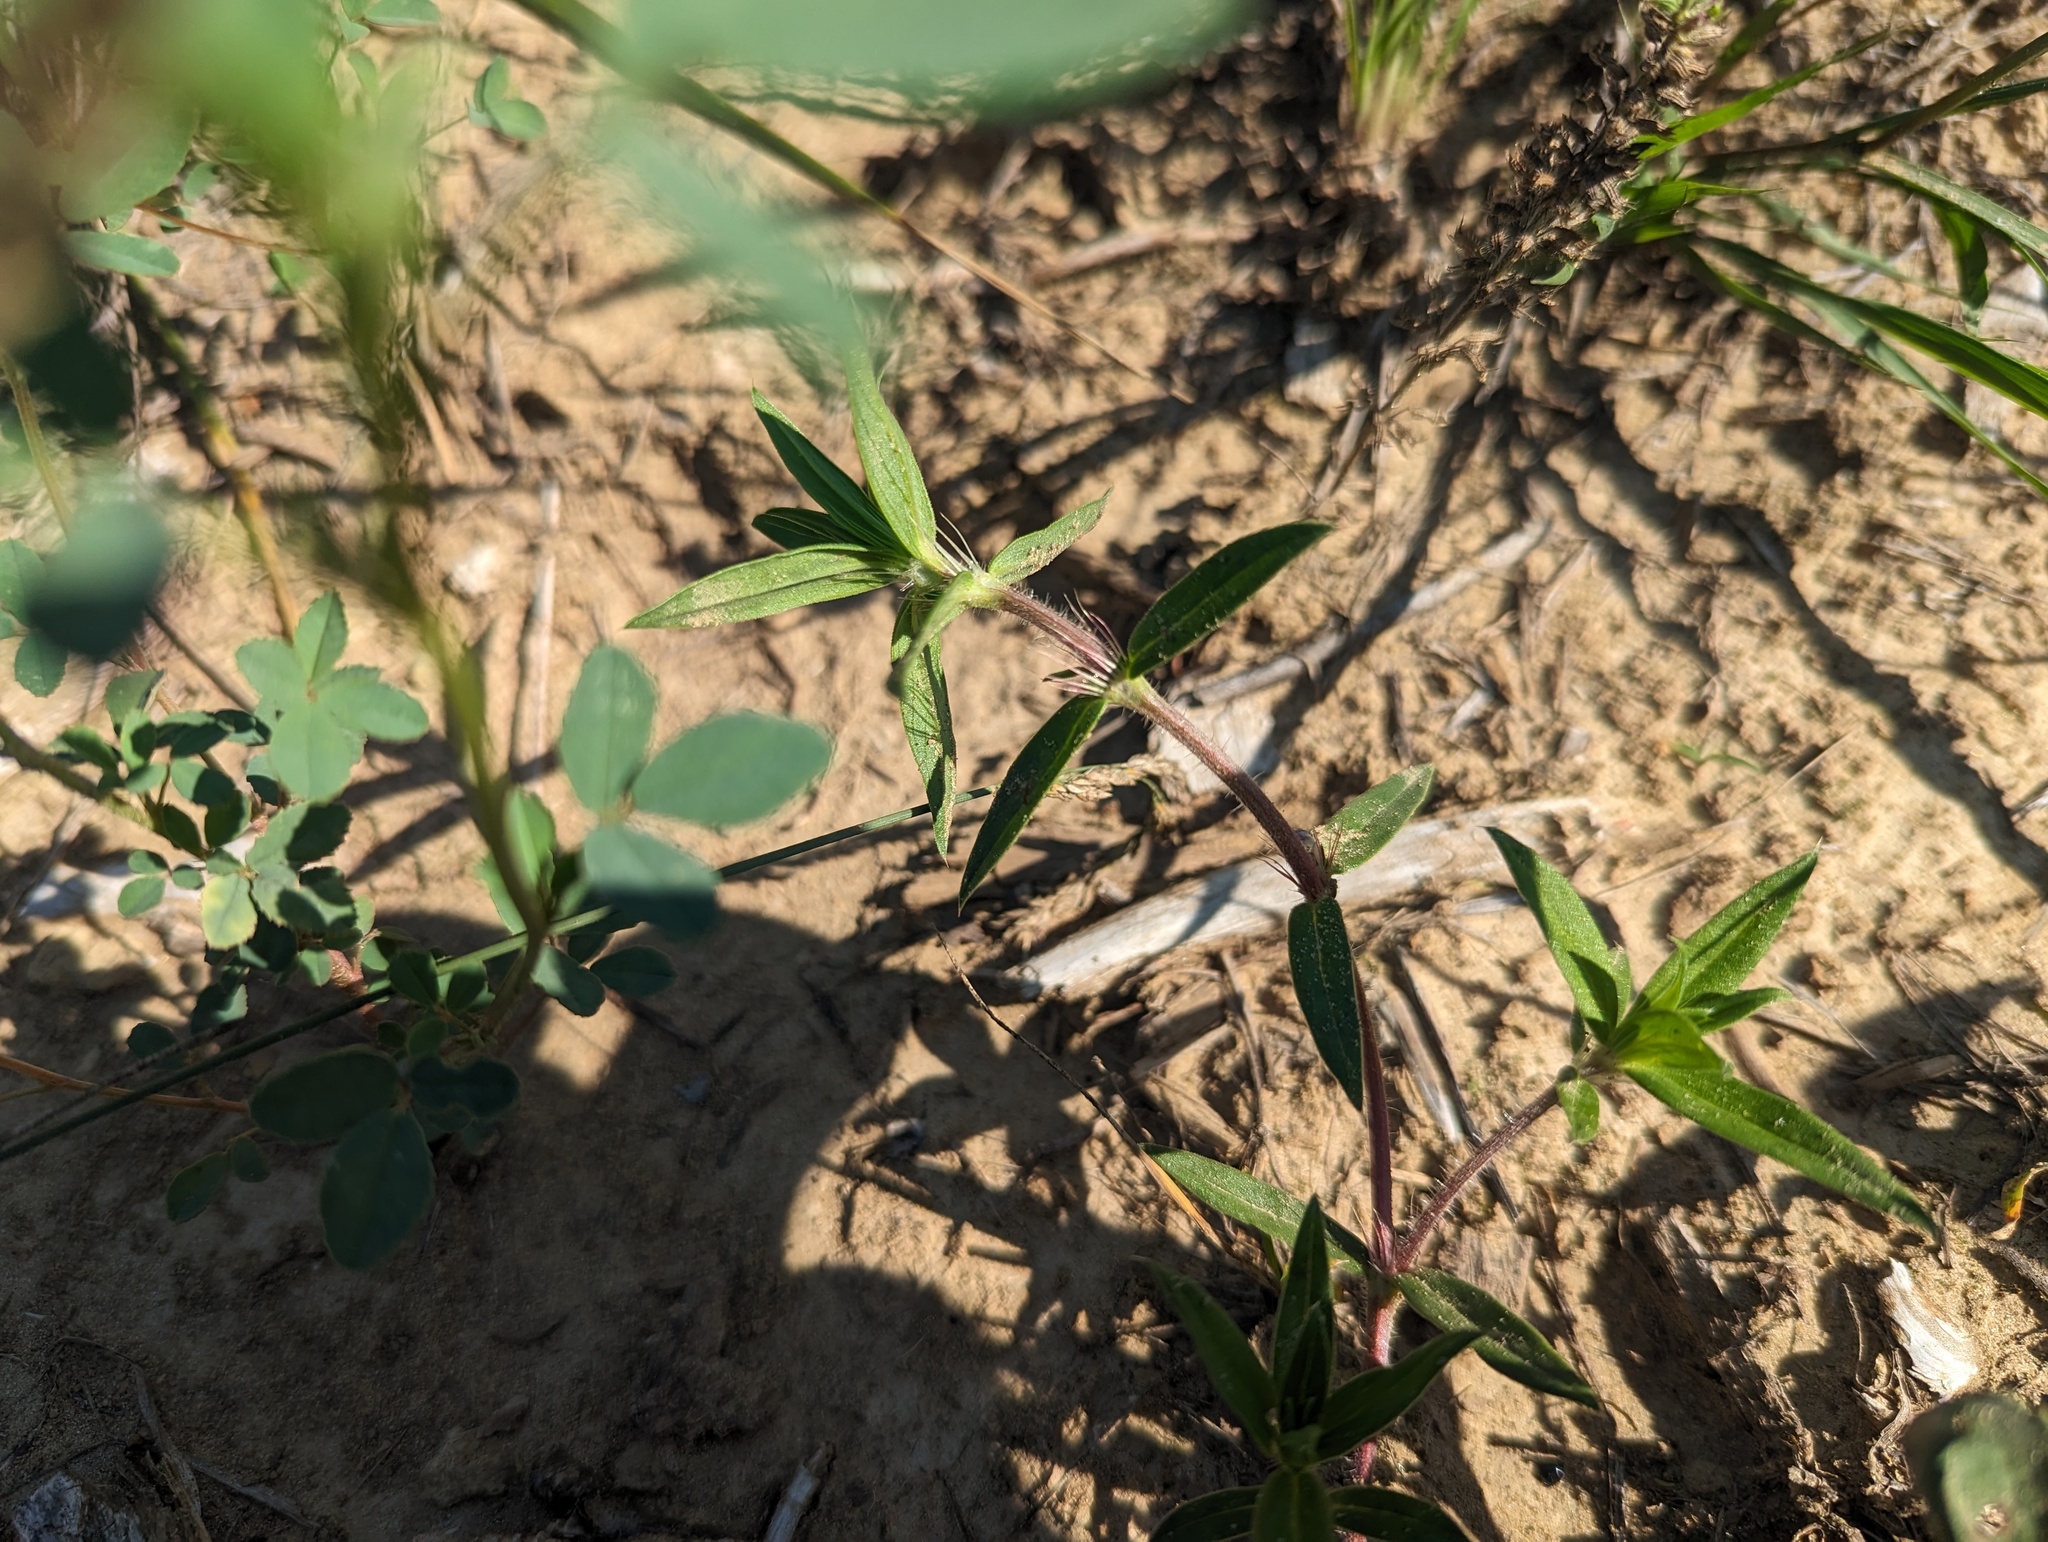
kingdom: Plantae
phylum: Tracheophyta
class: Magnoliopsida
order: Gentianales
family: Rubiaceae
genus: Hexasepalum
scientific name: Hexasepalum teres
